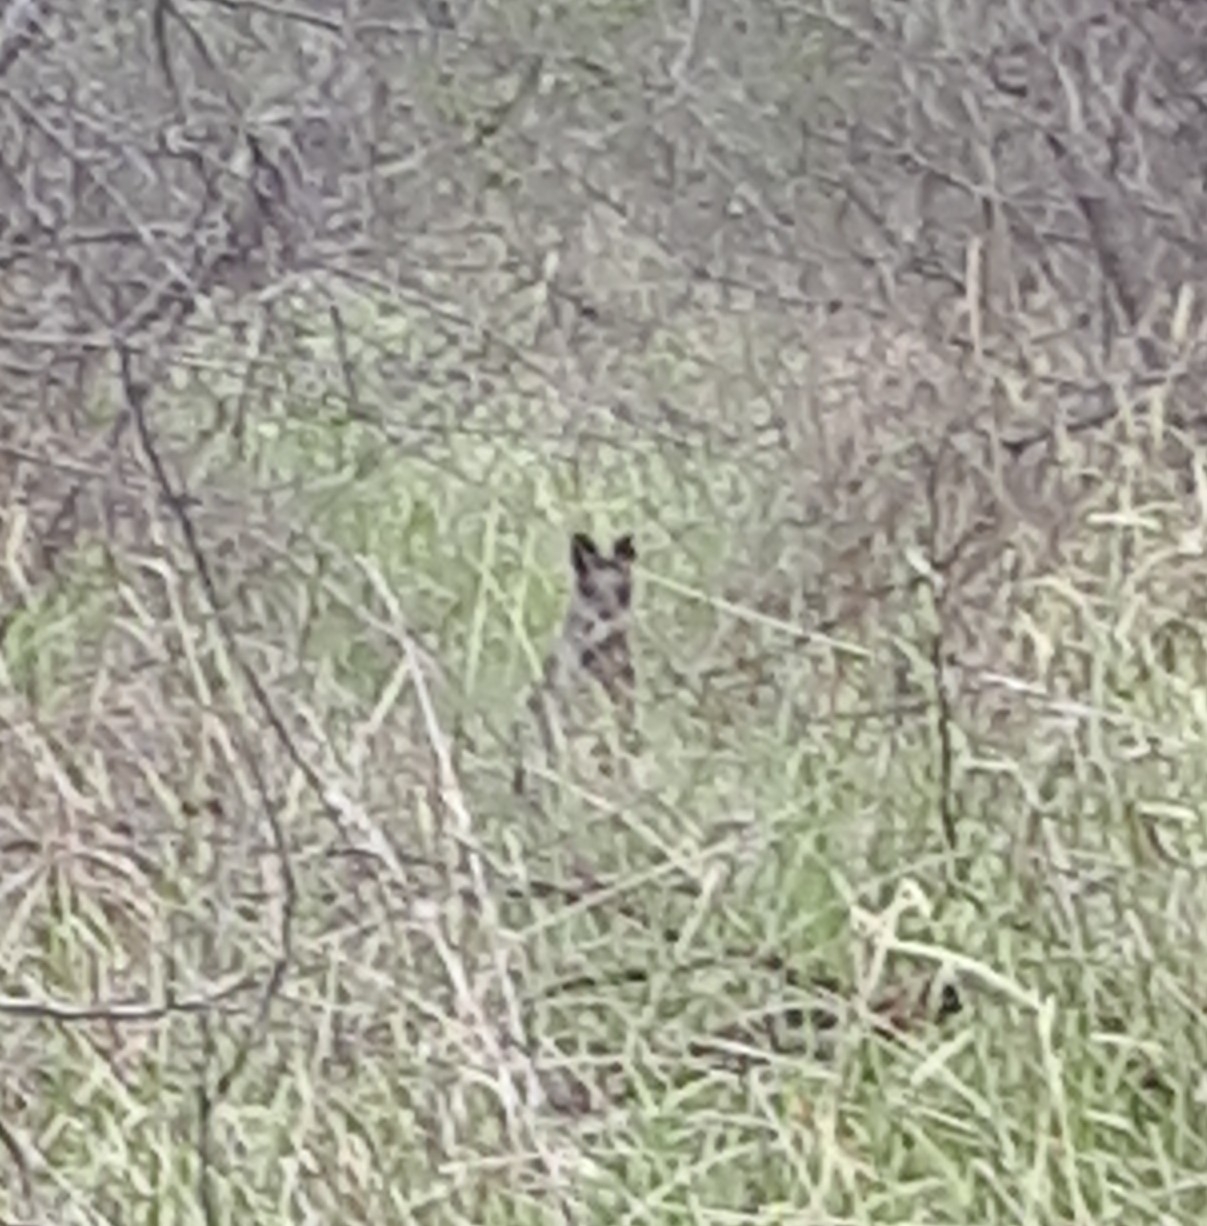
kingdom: Animalia
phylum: Chordata
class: Mammalia
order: Diprotodontia
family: Macropodidae
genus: Wallabia
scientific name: Wallabia bicolor
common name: Swamp wallaby
